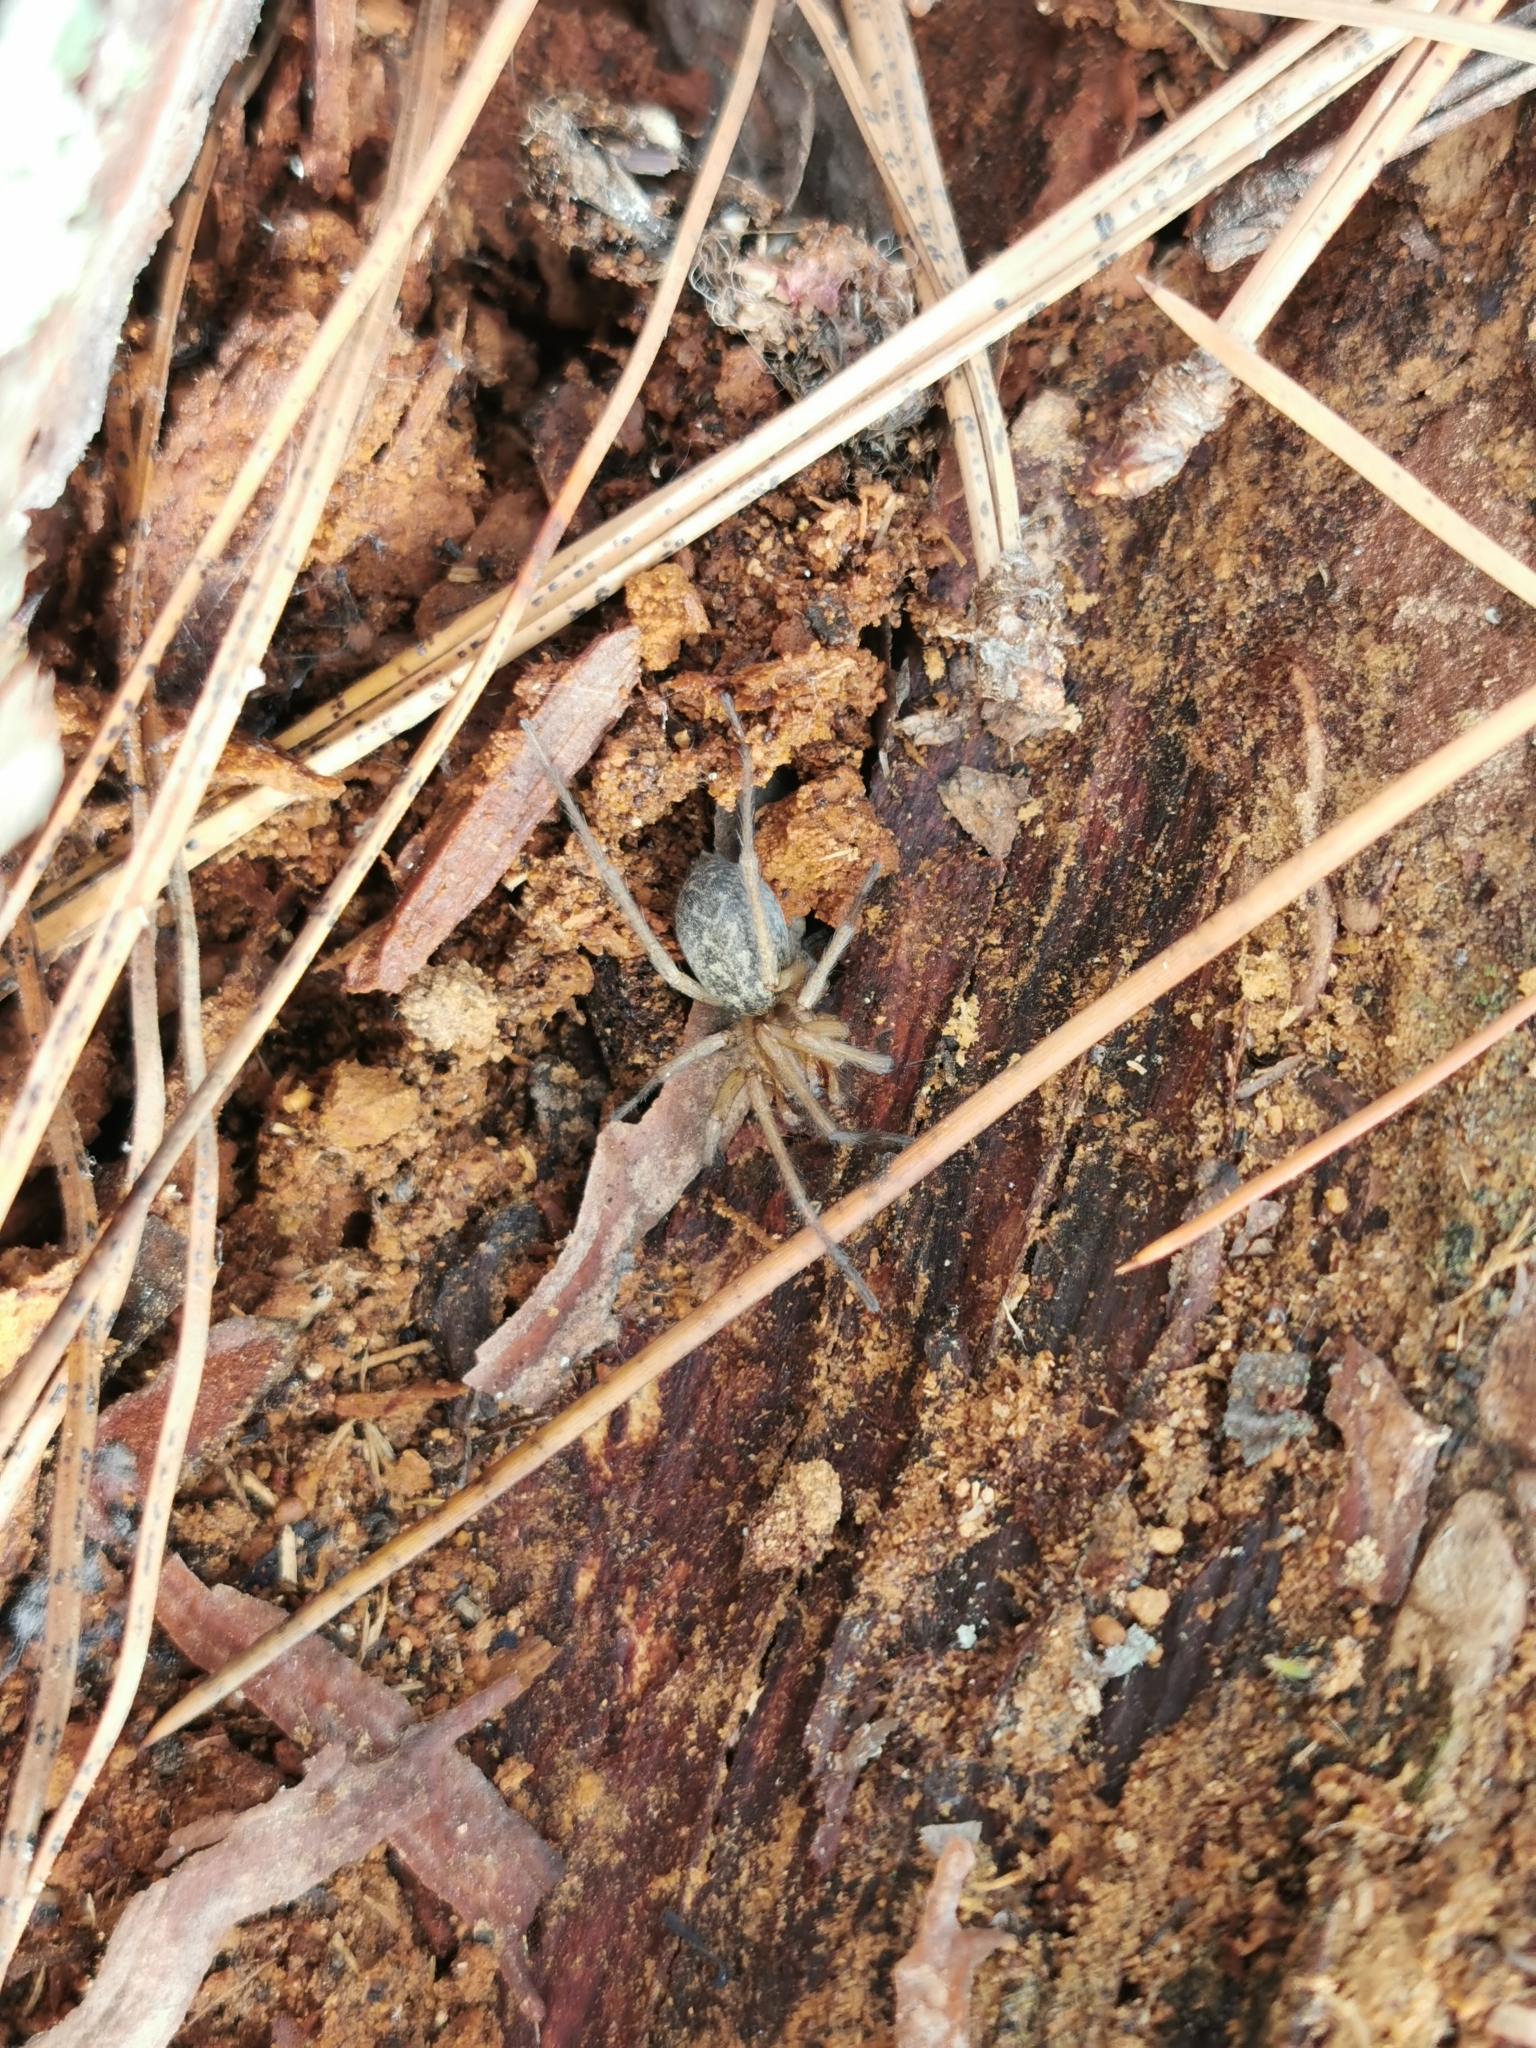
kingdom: Animalia
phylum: Arthropoda
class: Arachnida
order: Araneae
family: Agelenidae
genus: Eratigena
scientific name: Eratigena agrestis
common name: Hobo spider
